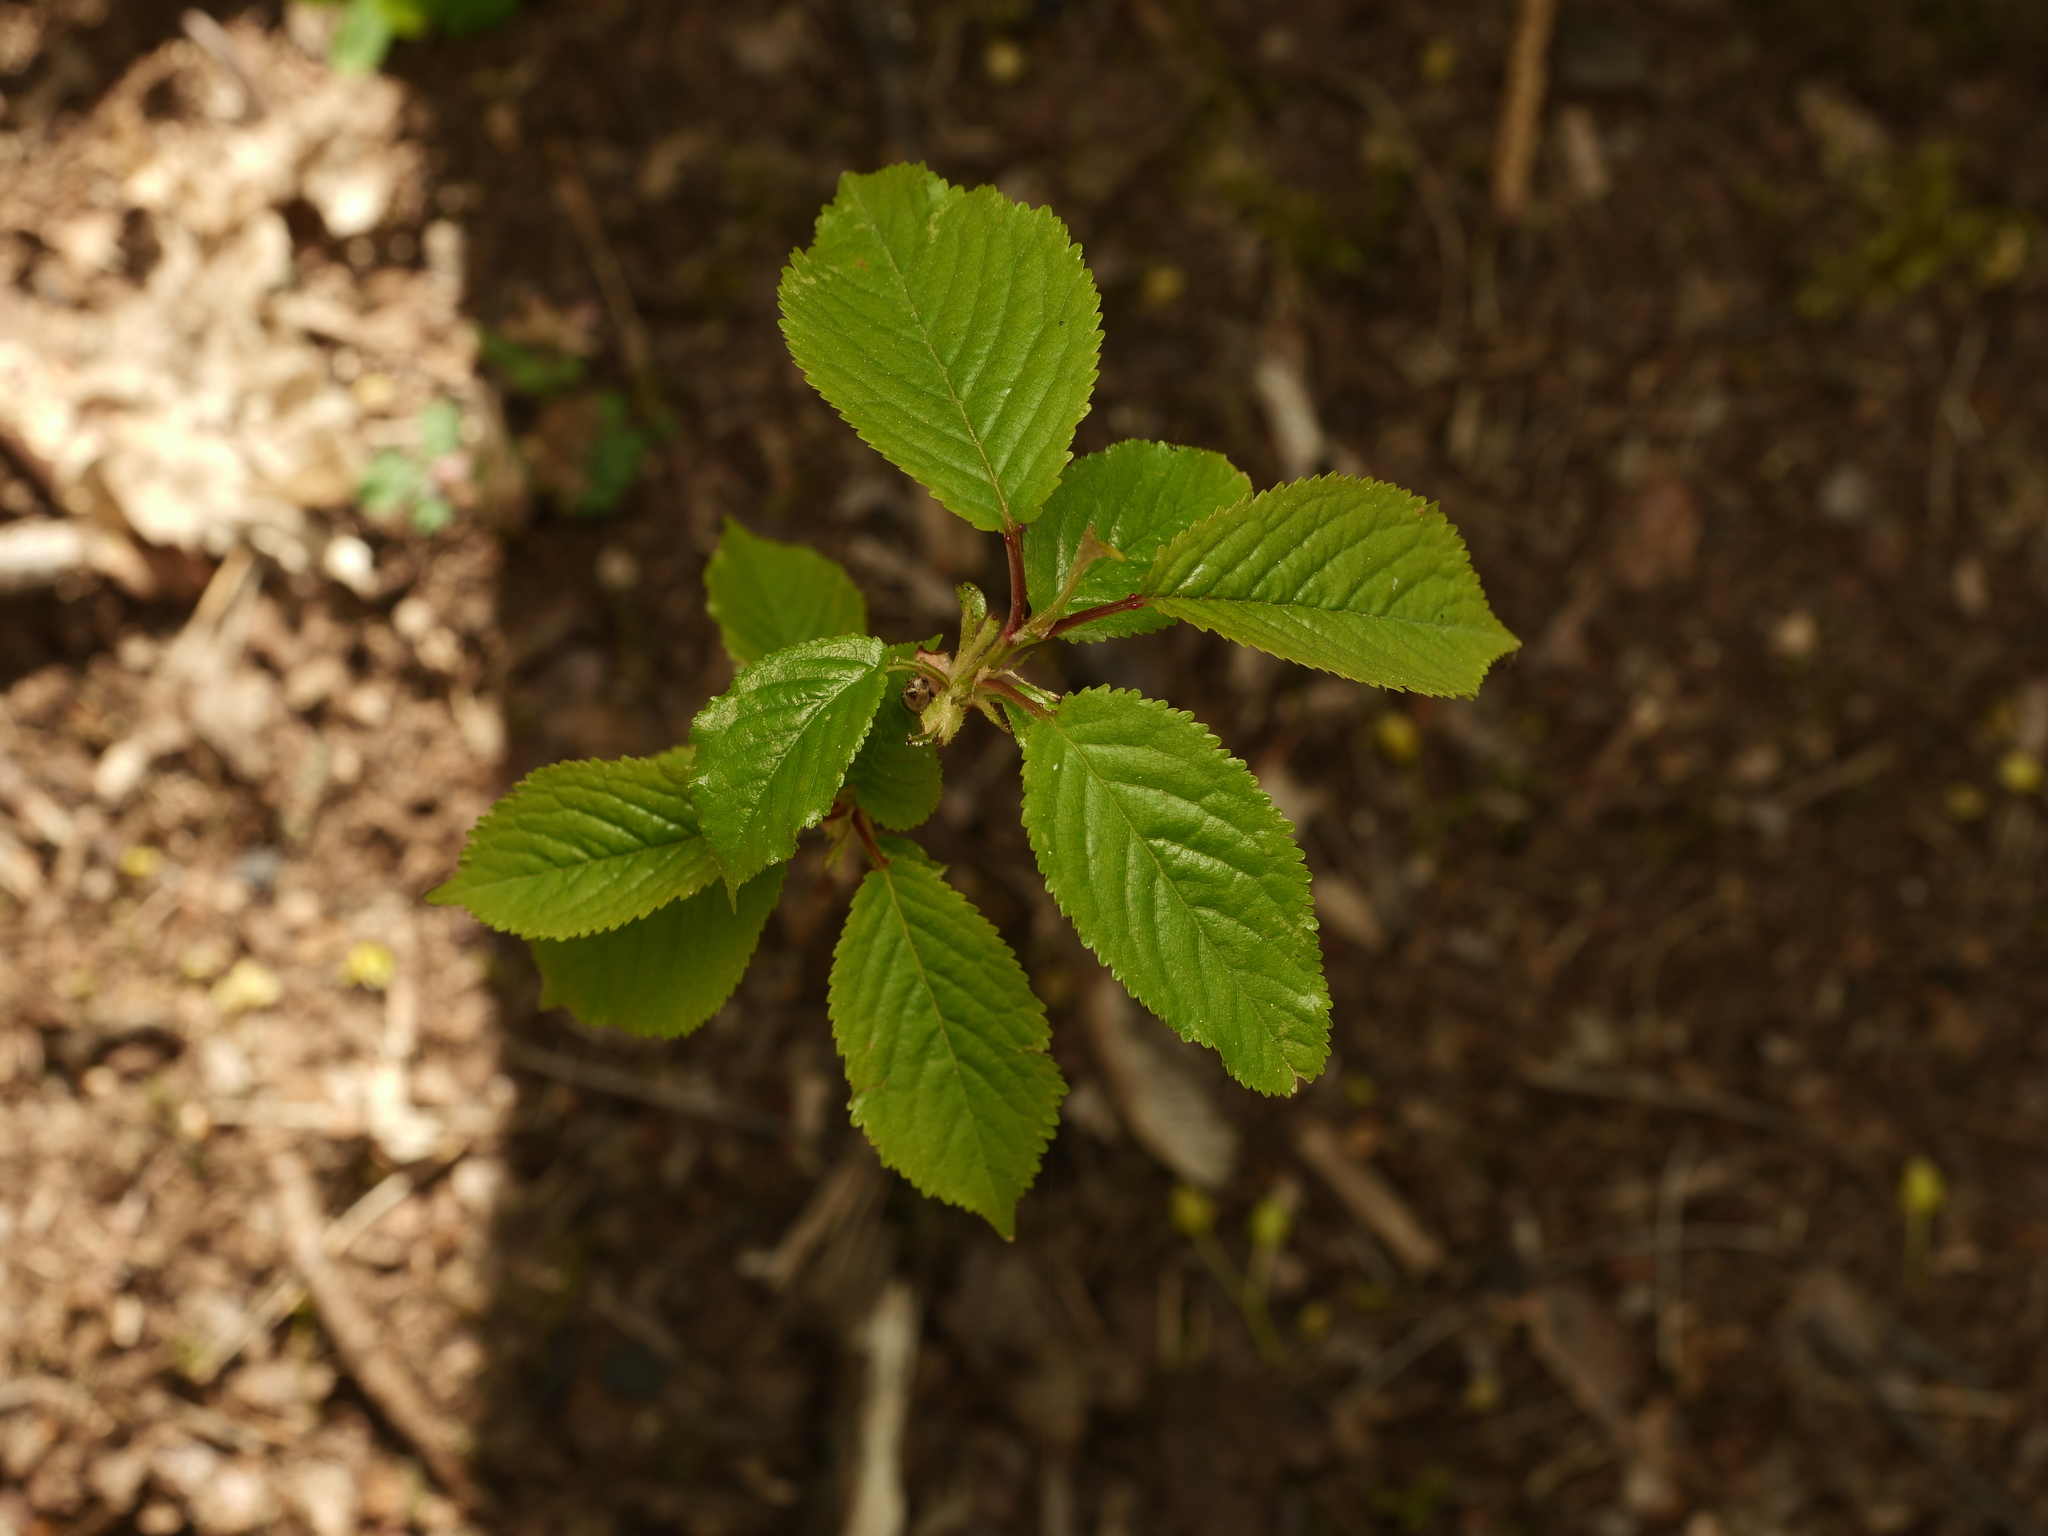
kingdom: Plantae
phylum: Tracheophyta
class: Magnoliopsida
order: Rosales
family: Rosaceae
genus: Prunus
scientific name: Prunus avium
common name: Sweet cherry
